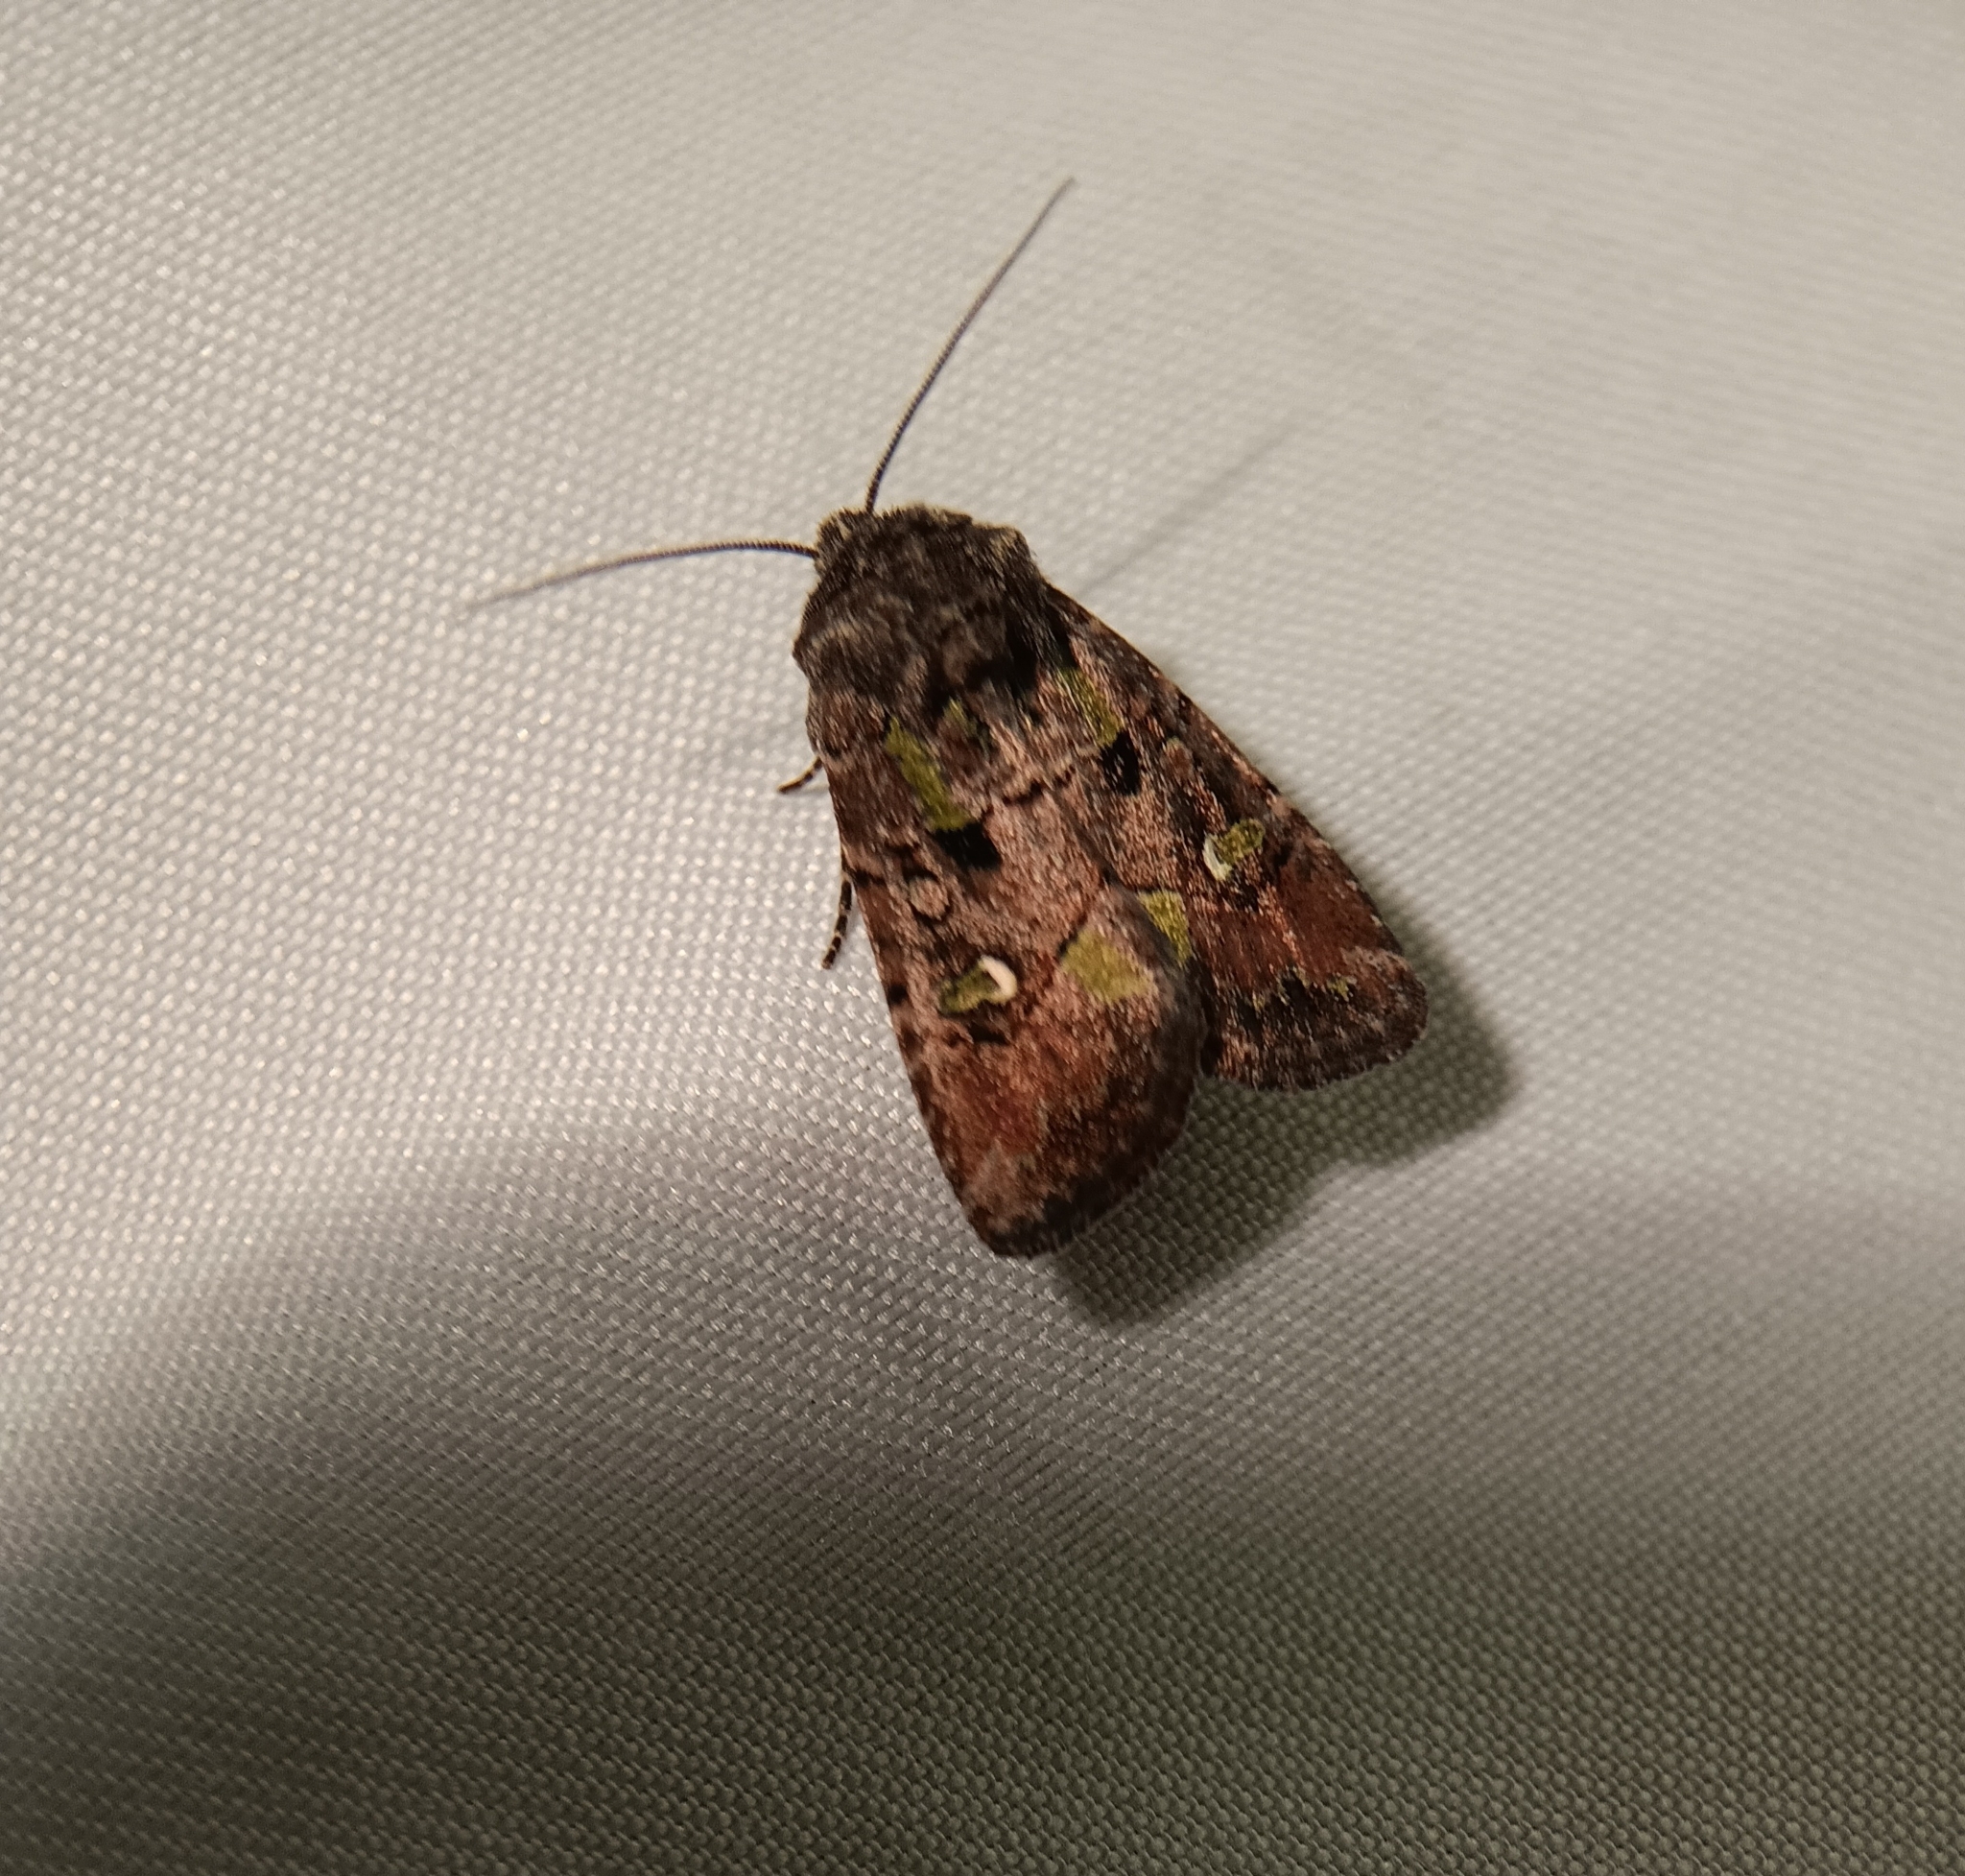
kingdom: Animalia
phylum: Arthropoda
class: Insecta
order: Lepidoptera
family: Noctuidae
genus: Lacinipolia
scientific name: Lacinipolia renigera
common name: Kidney-spotted minor
